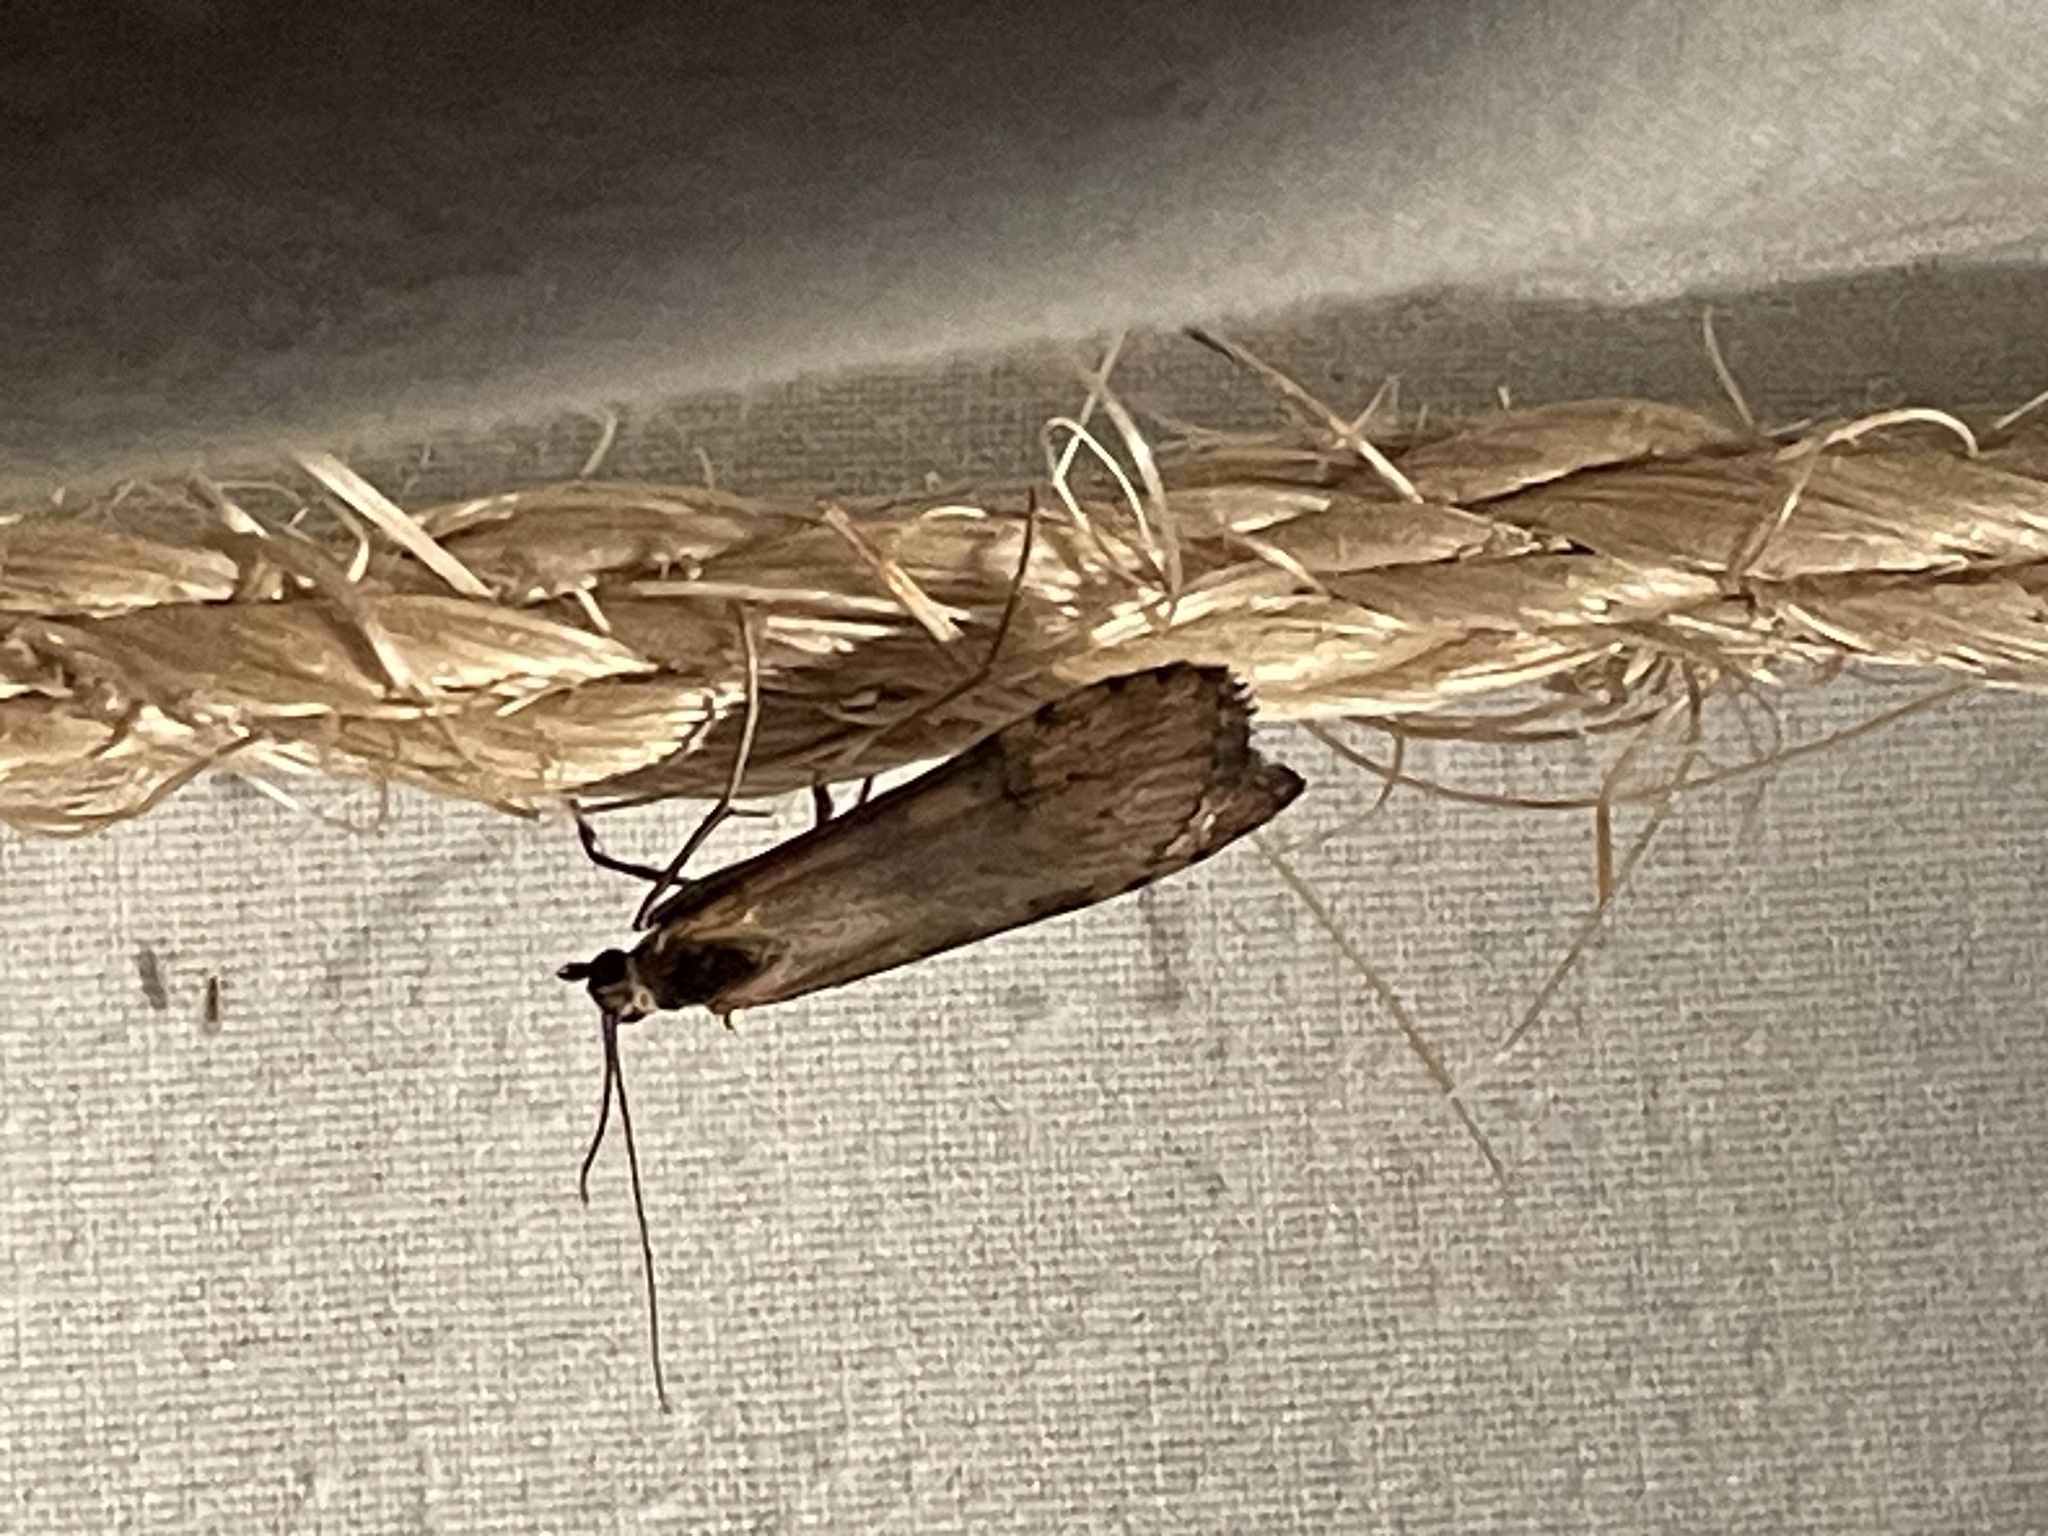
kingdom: Animalia
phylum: Arthropoda
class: Insecta
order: Lepidoptera
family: Crambidae
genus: Nomophila
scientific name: Nomophila nearctica
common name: American rush veneer
